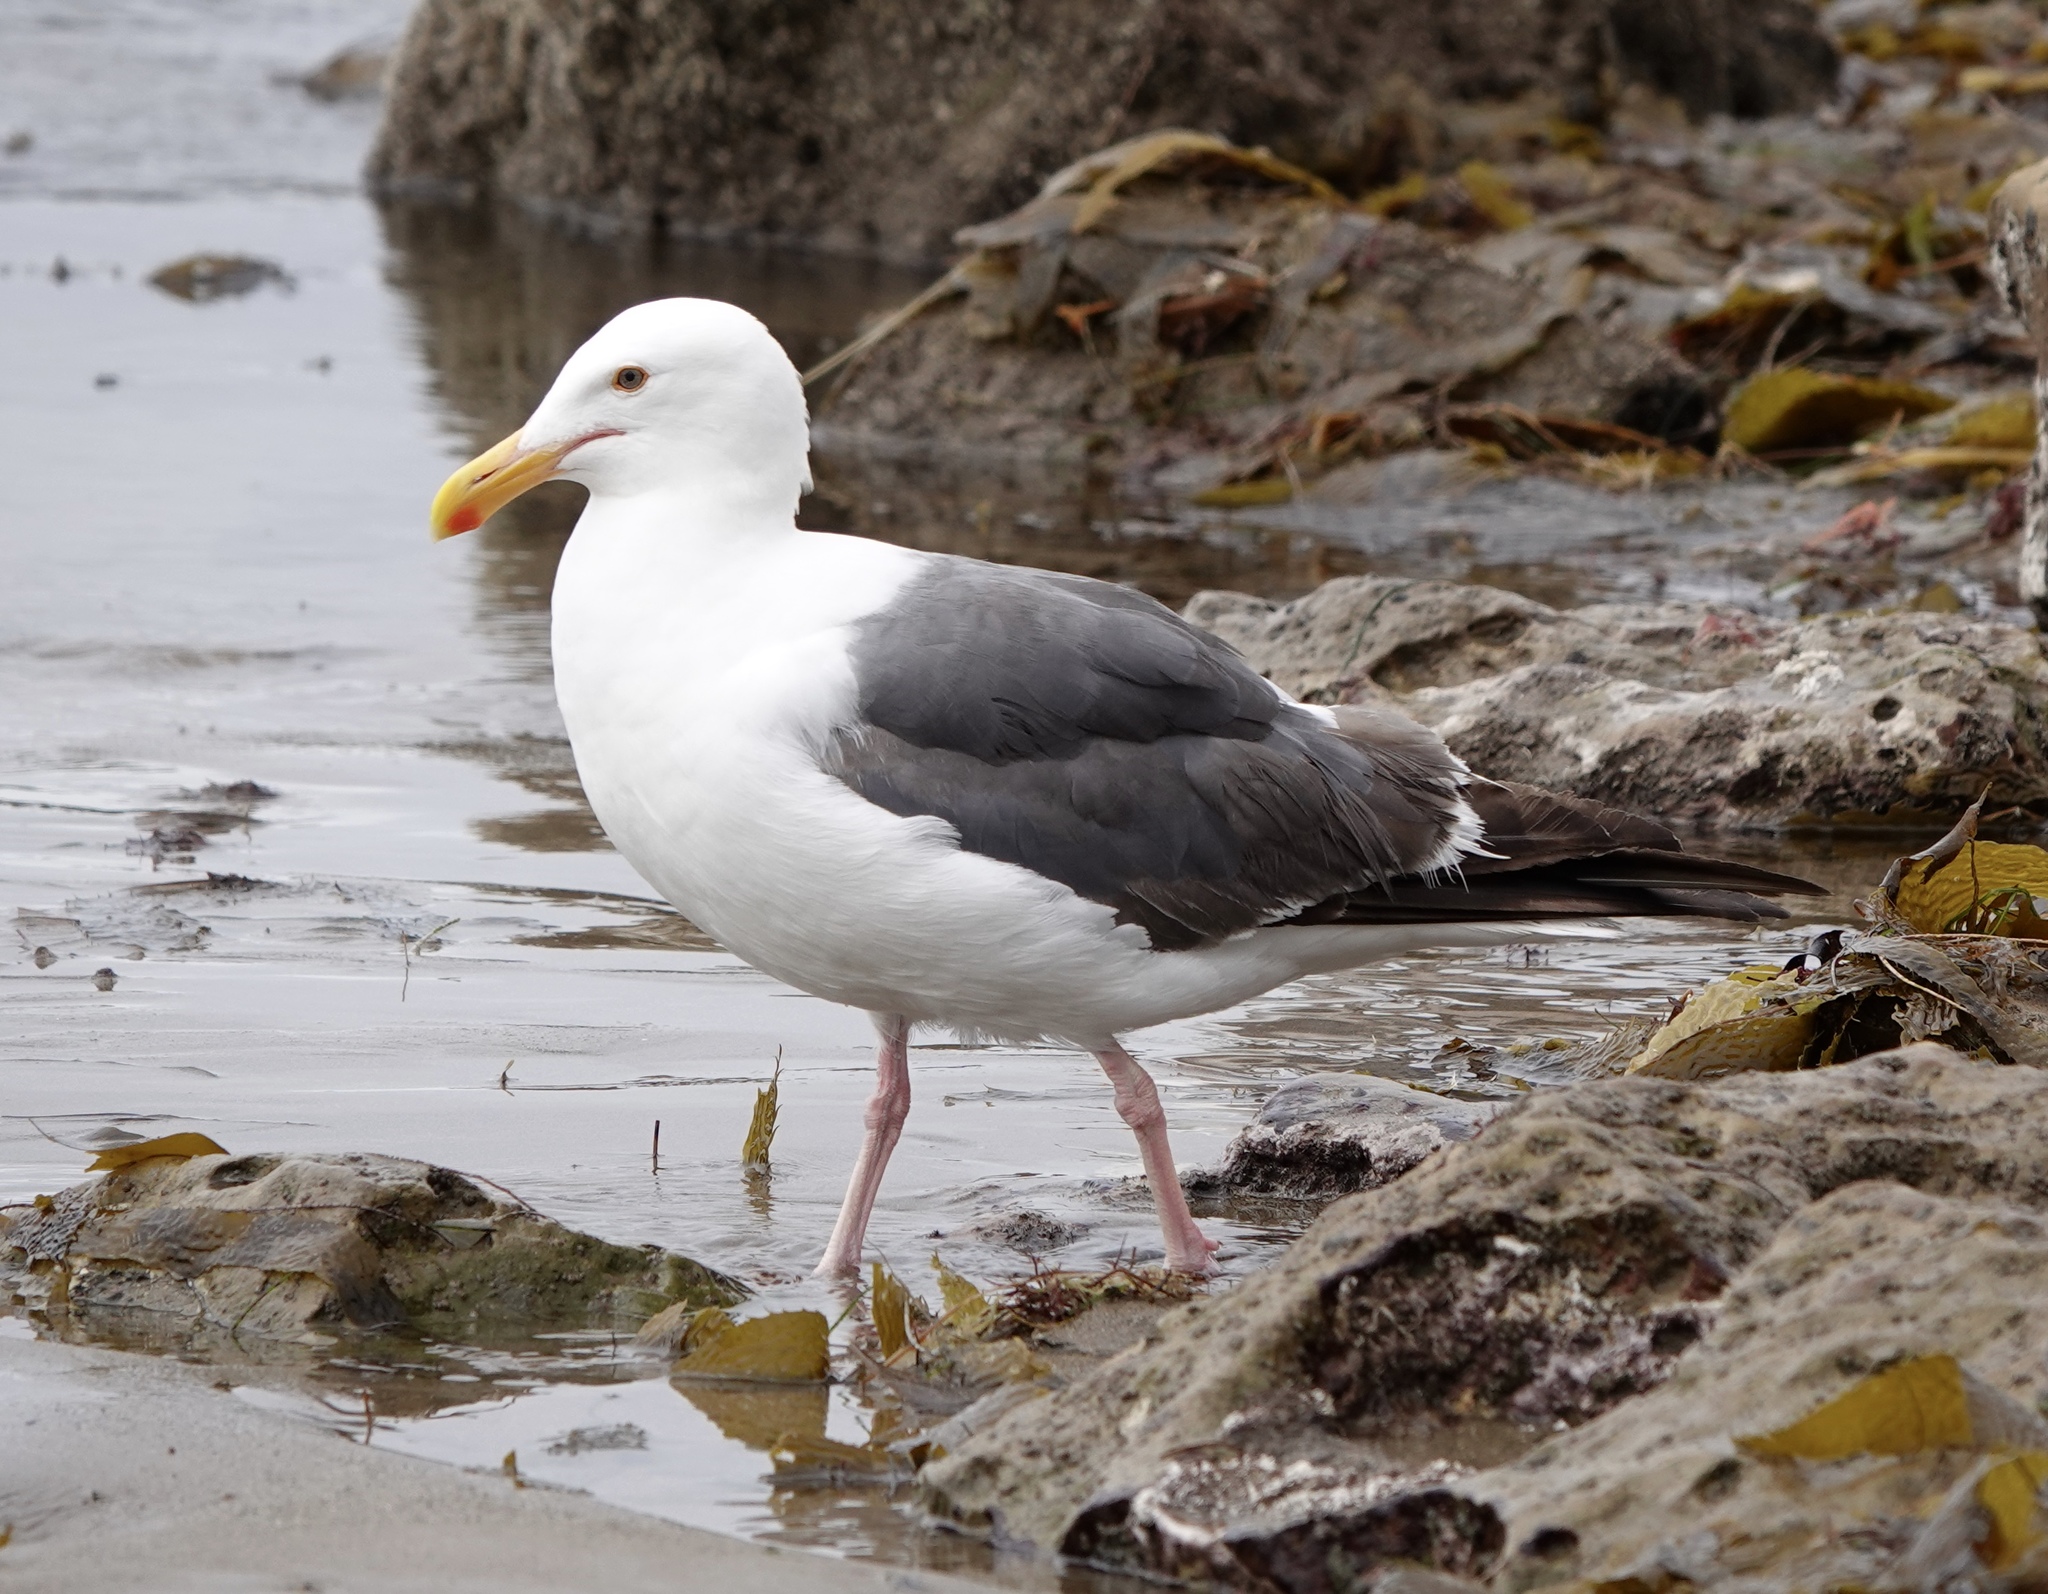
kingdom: Animalia
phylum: Chordata
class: Aves
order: Charadriiformes
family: Laridae
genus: Larus
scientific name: Larus occidentalis
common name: Western gull
